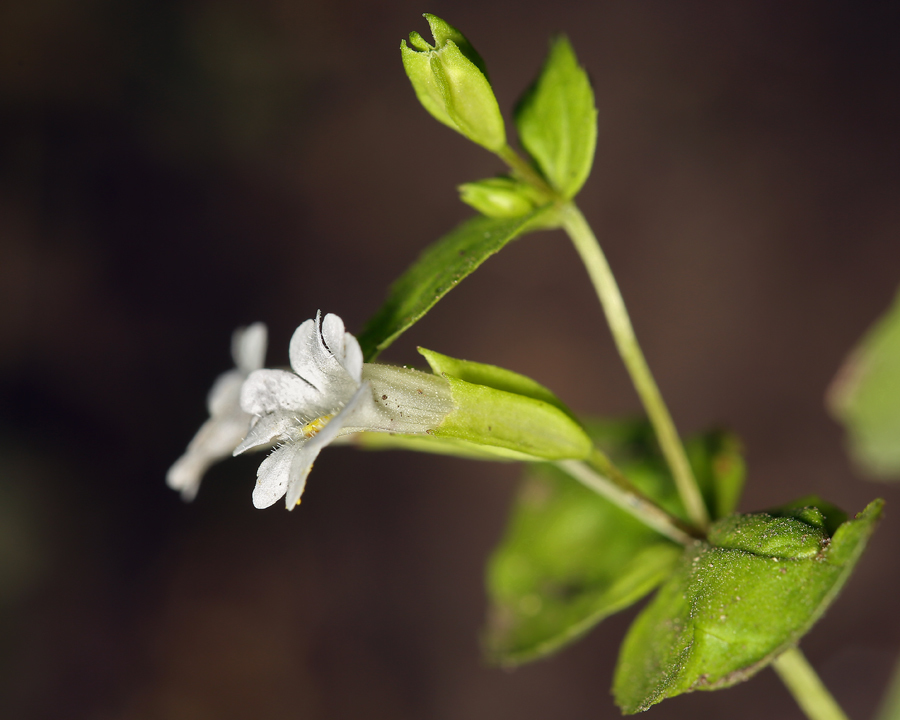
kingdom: Plantae
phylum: Tracheophyta
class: Magnoliopsida
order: Lamiales
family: Phrymaceae
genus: Erythranthe
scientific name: Erythranthe inconspicua
